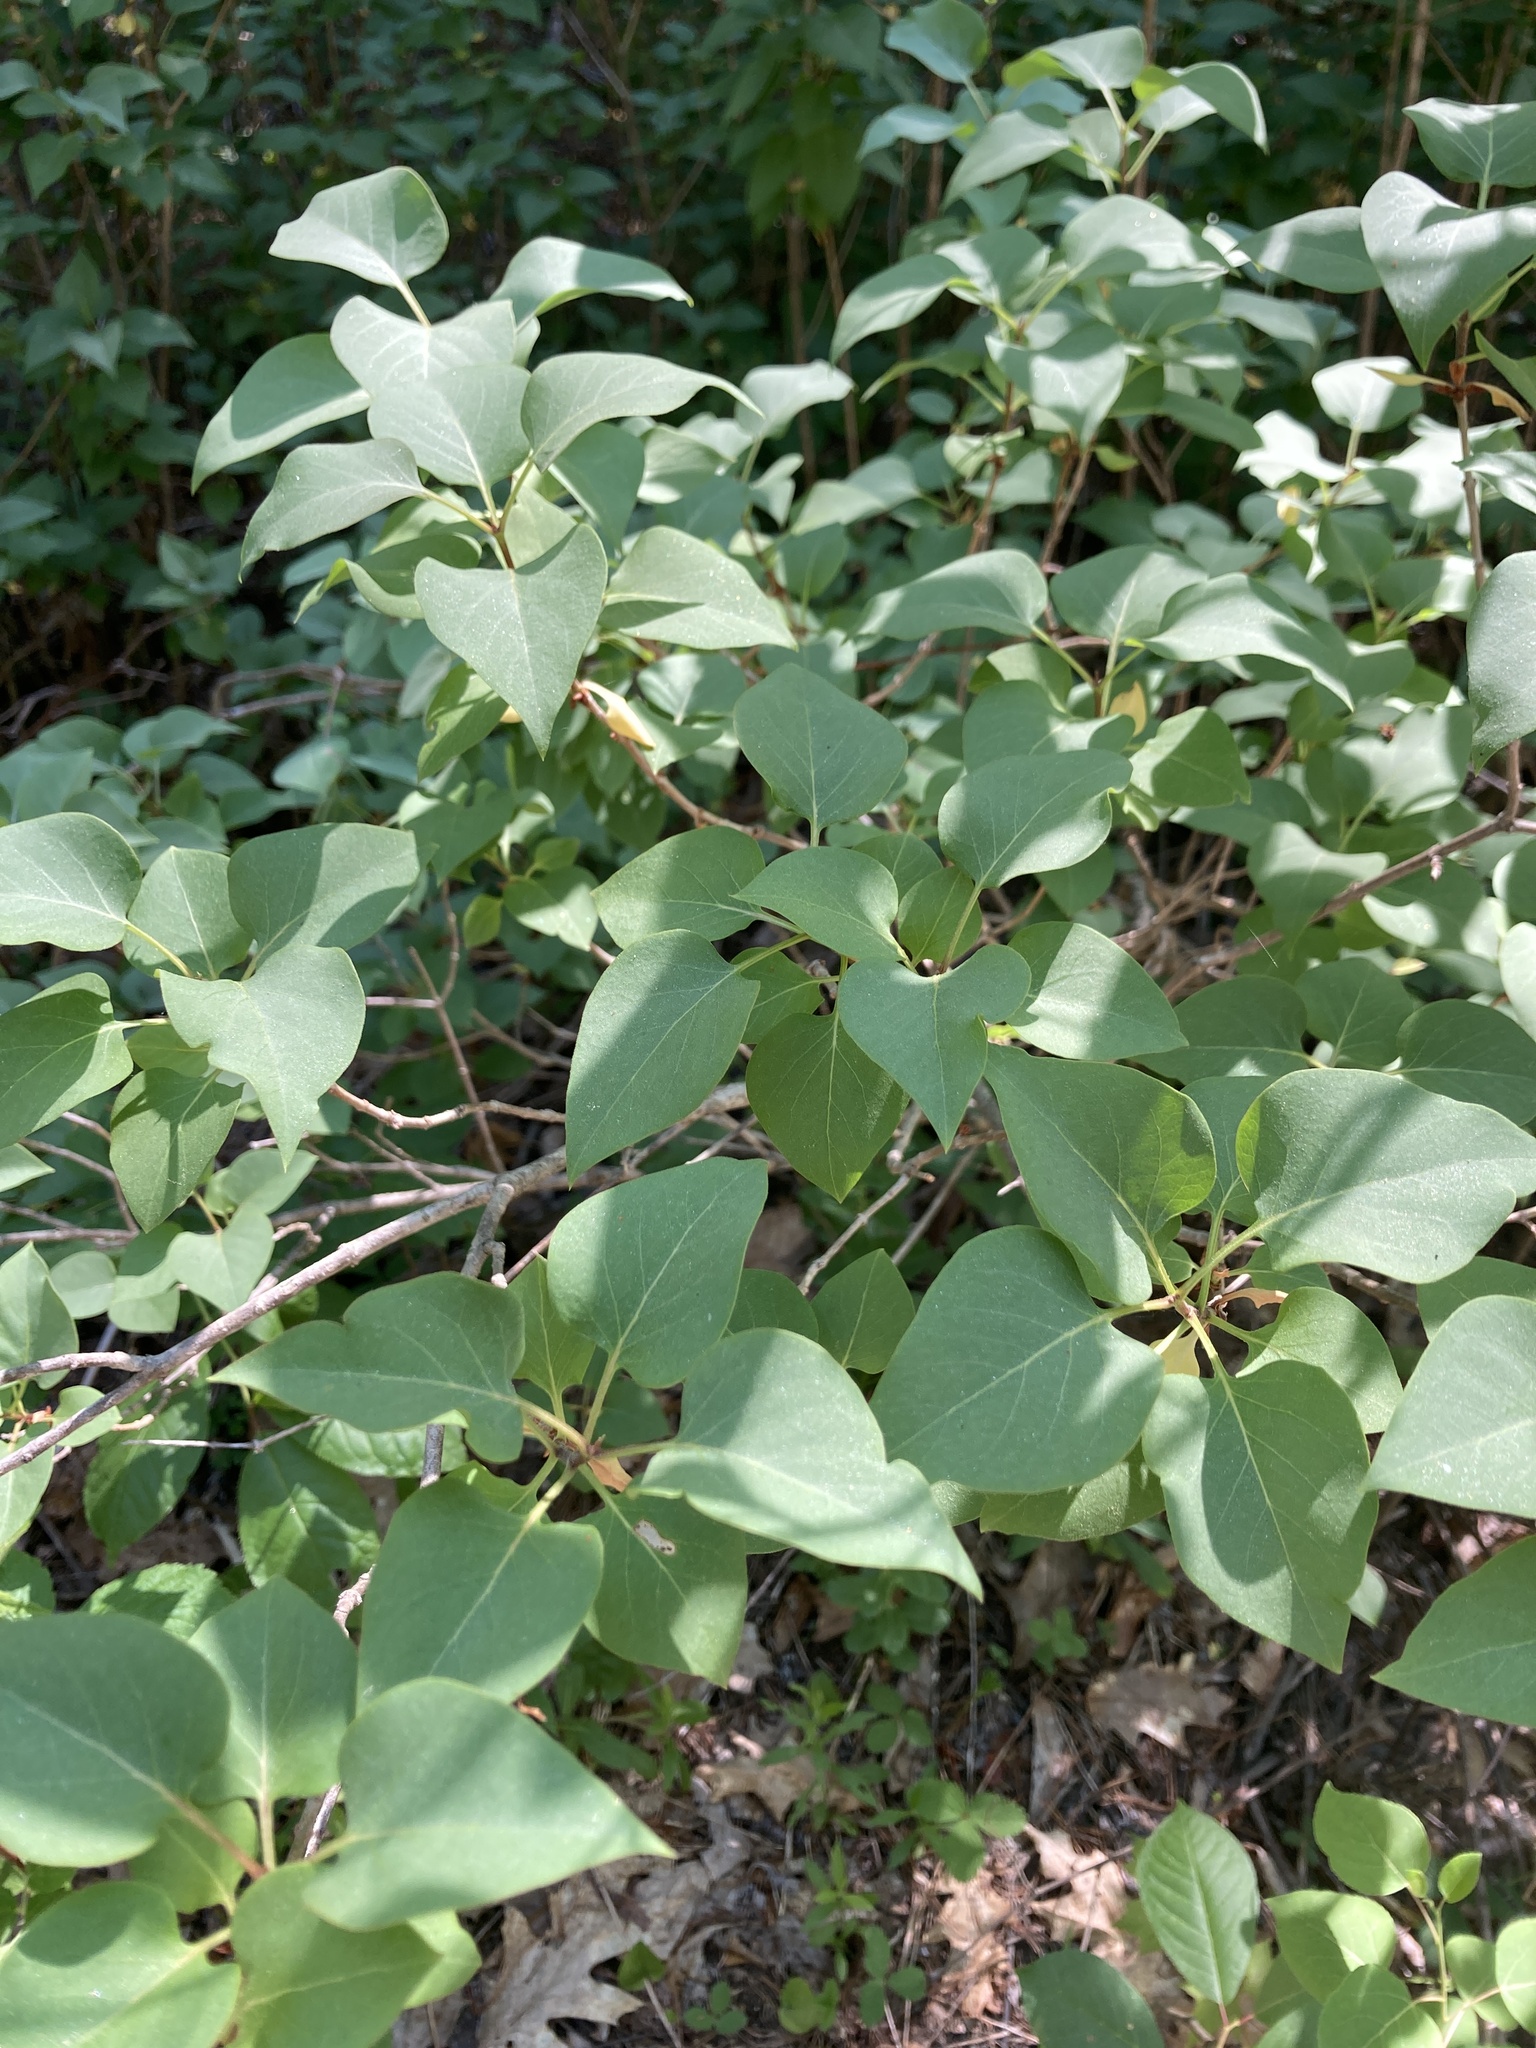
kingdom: Plantae
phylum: Tracheophyta
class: Magnoliopsida
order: Lamiales
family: Oleaceae
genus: Syringa
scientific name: Syringa vulgaris
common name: Common lilac
